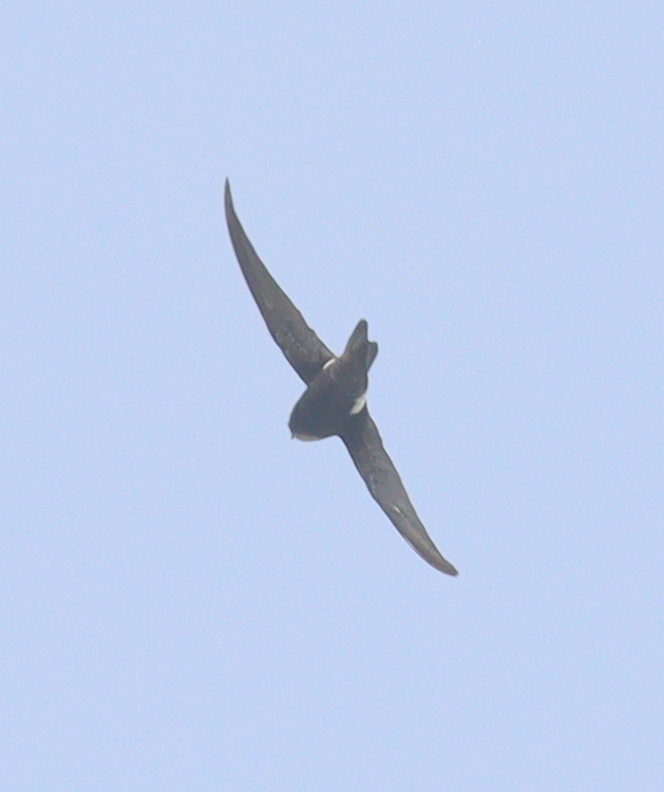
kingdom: Animalia
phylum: Chordata
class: Aves
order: Apodiformes
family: Apodidae
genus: Apus
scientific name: Apus nipalensis
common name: House swift
